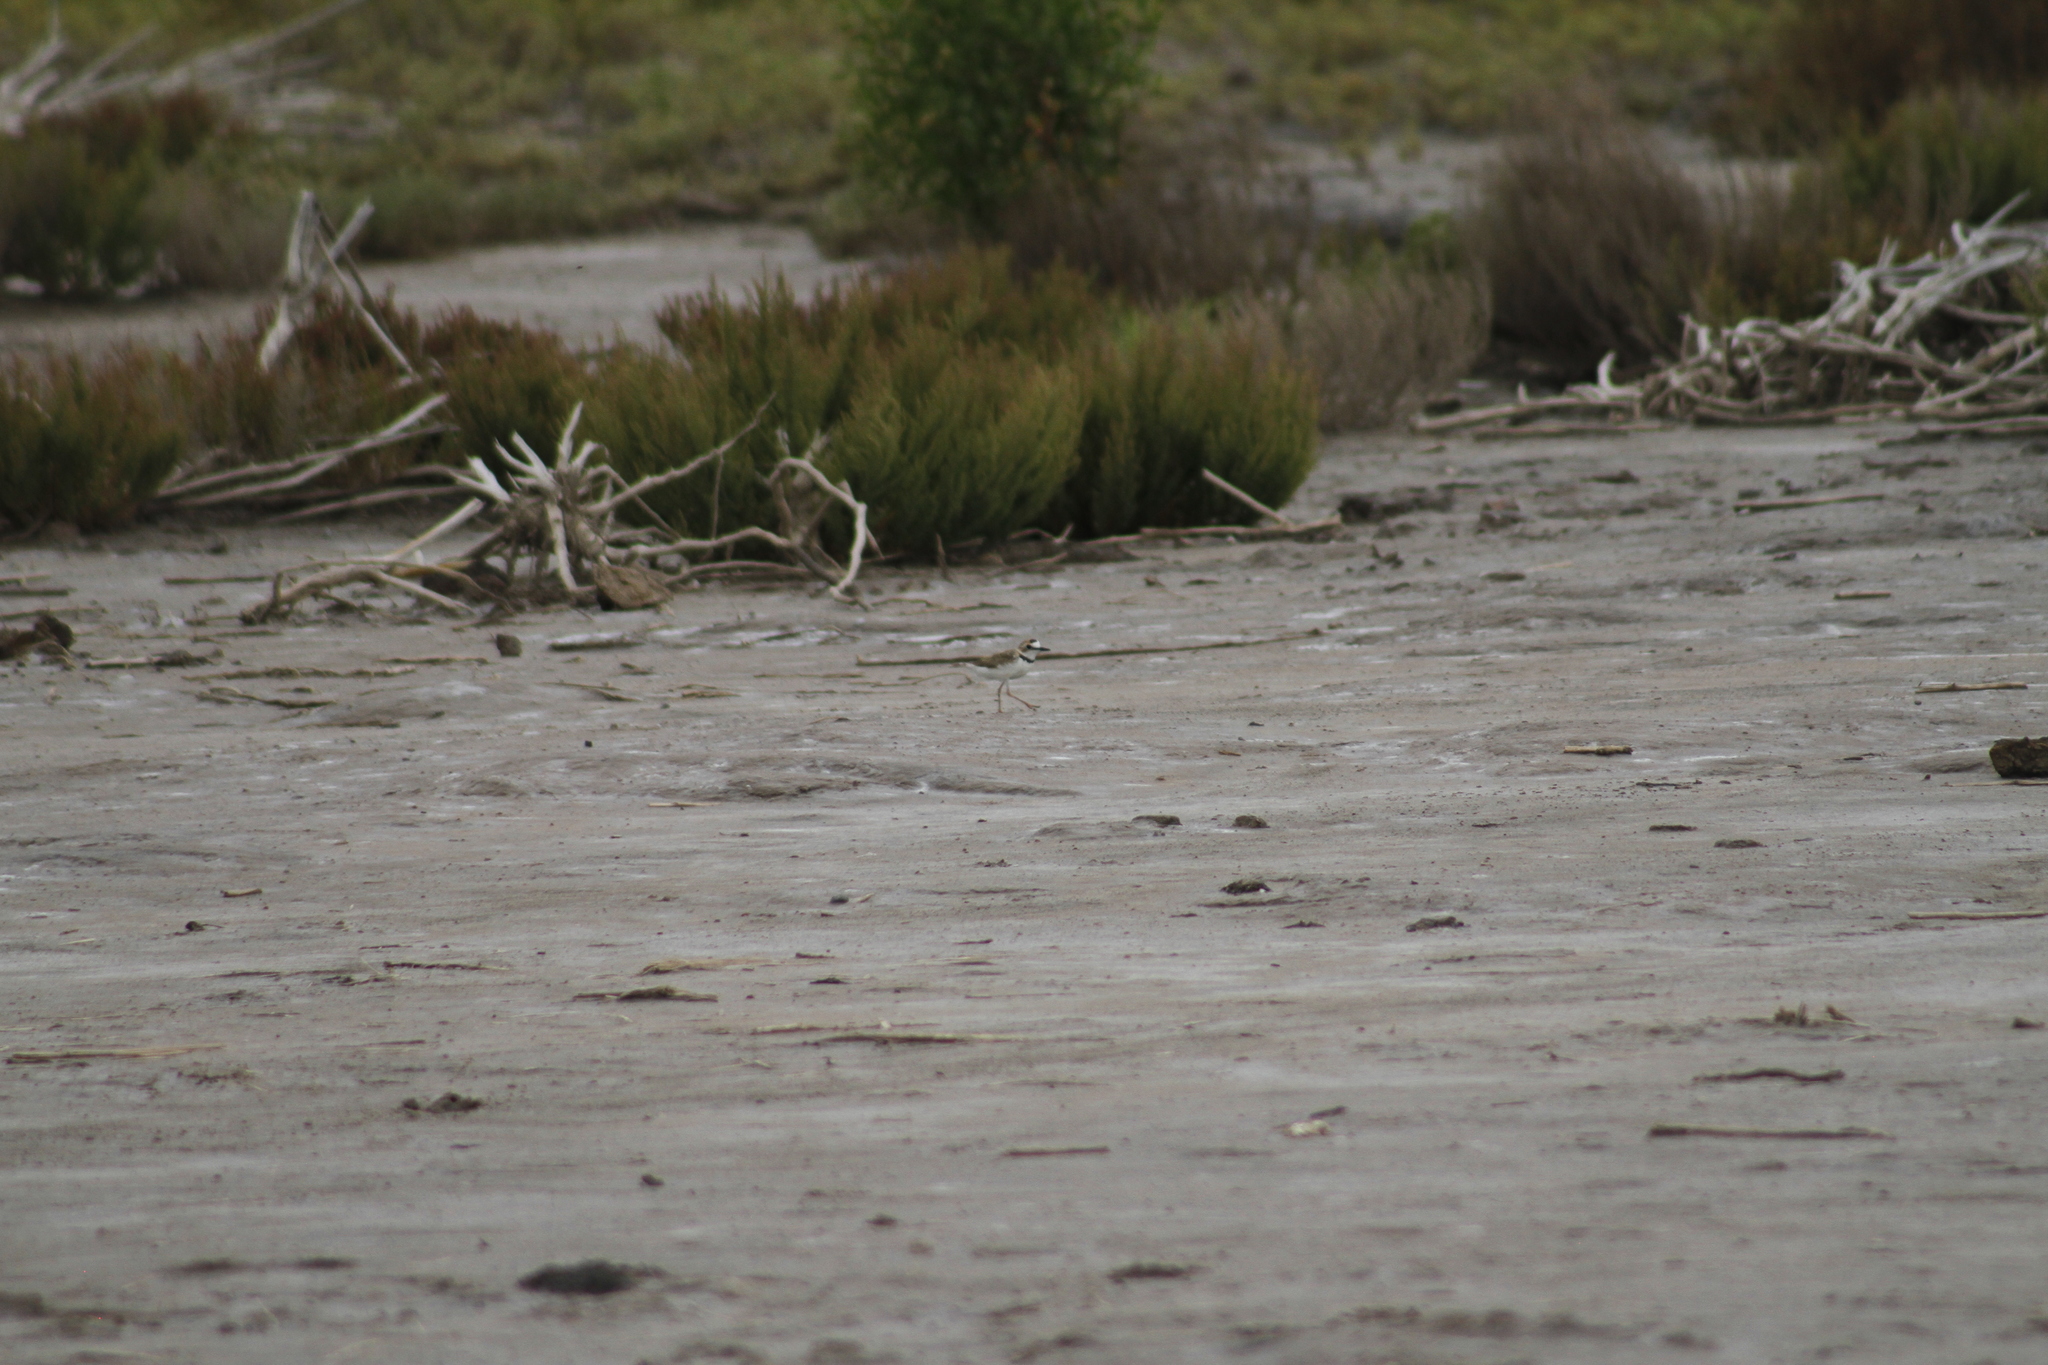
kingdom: Animalia
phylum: Chordata
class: Aves
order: Charadriiformes
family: Charadriidae
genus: Anarhynchus
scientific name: Anarhynchus
